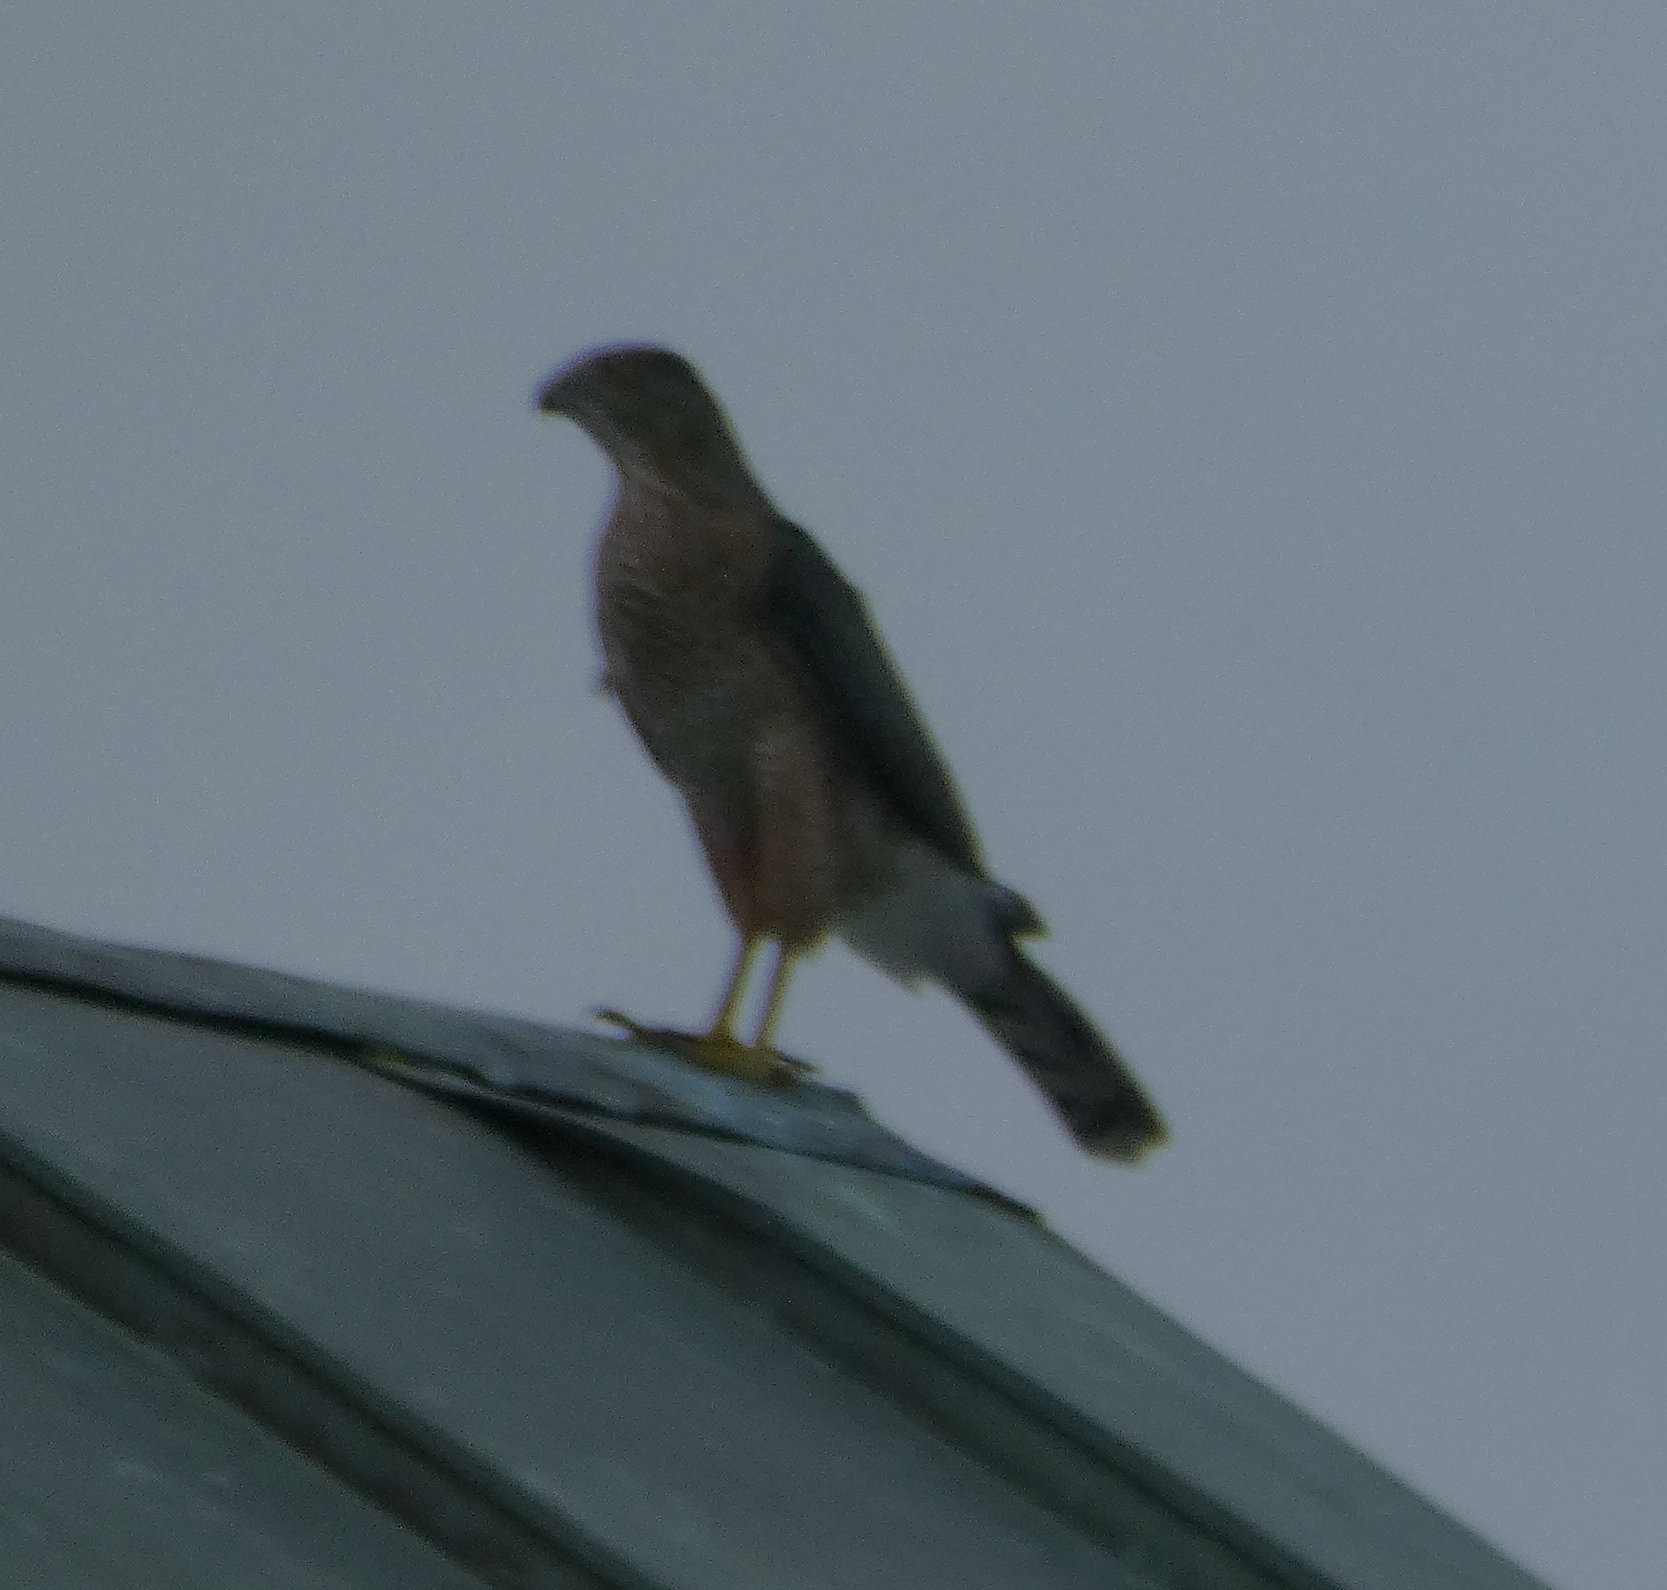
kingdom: Animalia
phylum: Chordata
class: Aves
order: Accipitriformes
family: Accipitridae
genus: Accipiter
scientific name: Accipiter cooperii
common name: Cooper's hawk
